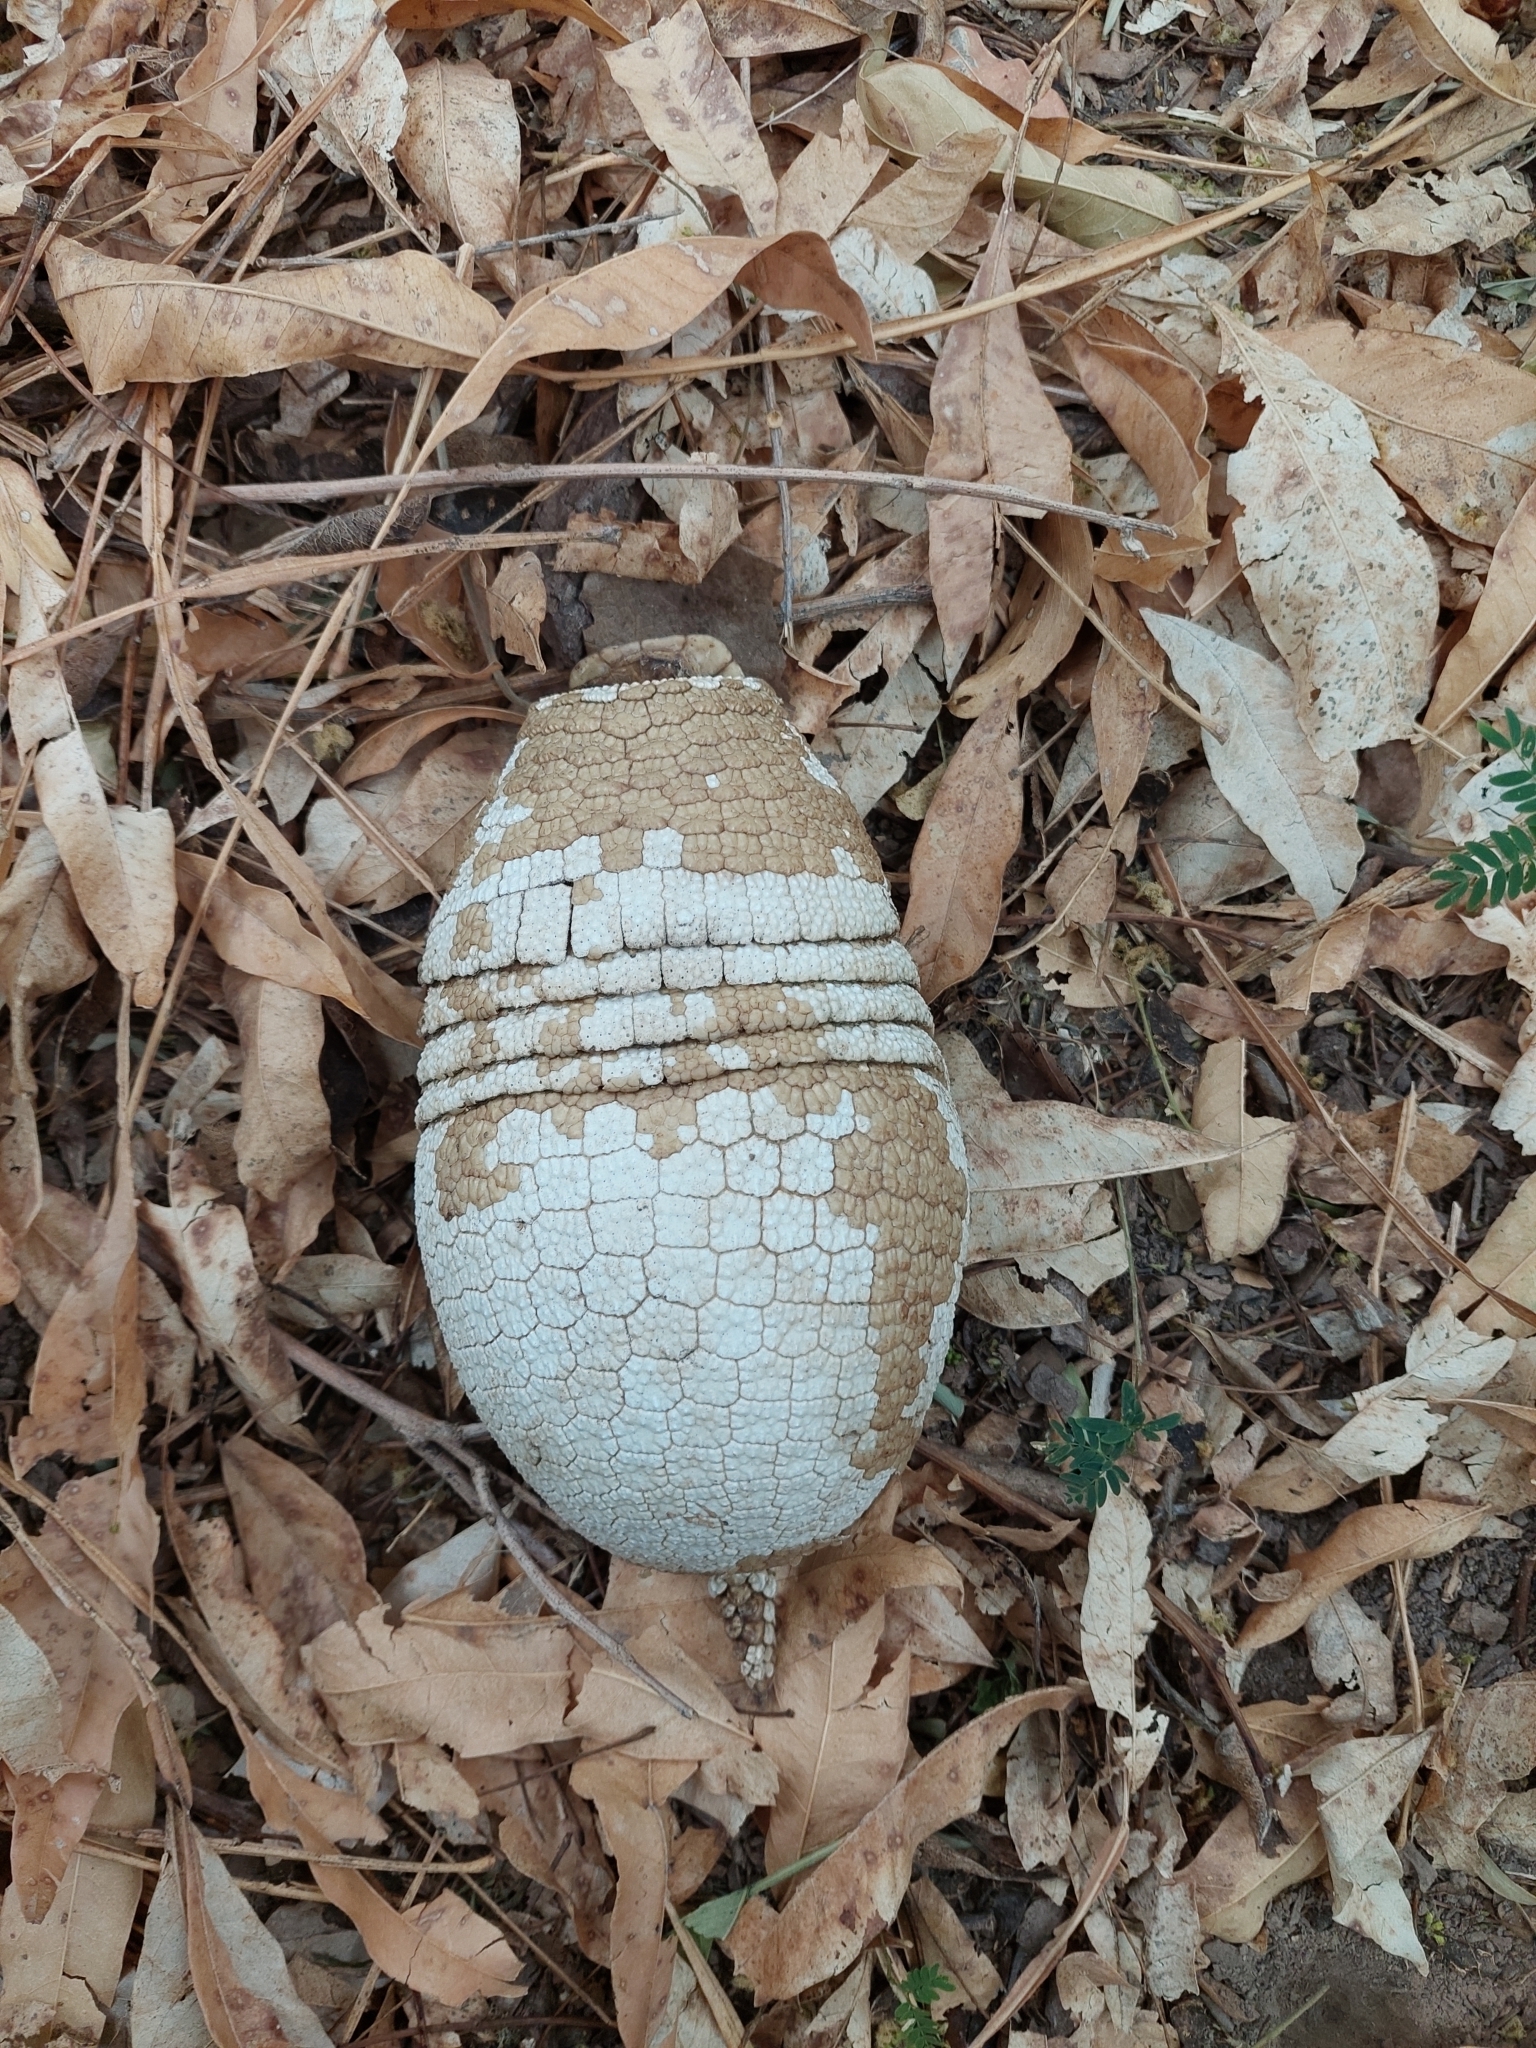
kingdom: Animalia
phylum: Chordata
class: Mammalia
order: Cingulata
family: Dasypodidae
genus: Tolypeutes
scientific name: Tolypeutes matacus
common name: Southern three-banded armadillo
